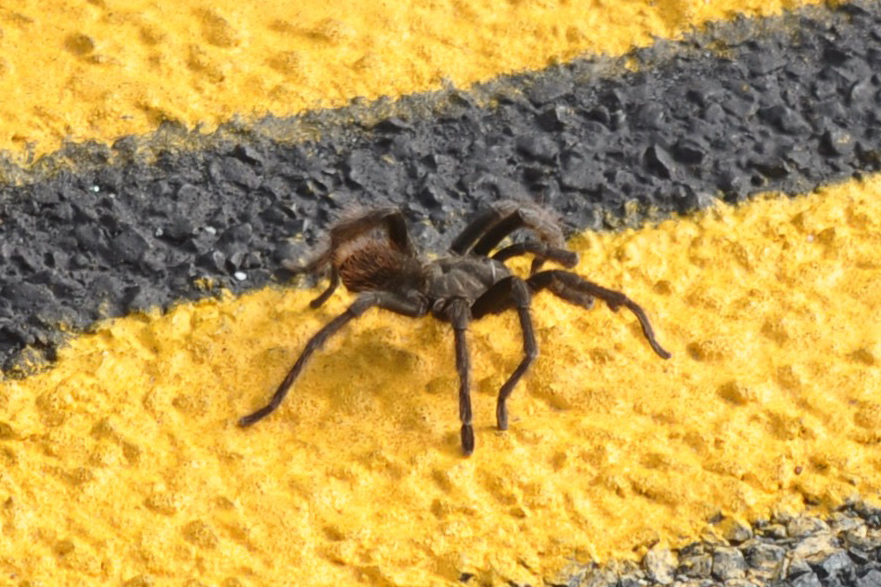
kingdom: Animalia
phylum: Arthropoda
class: Arachnida
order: Araneae
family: Theraphosidae
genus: Aphonopelma
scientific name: Aphonopelma johnnycashi
